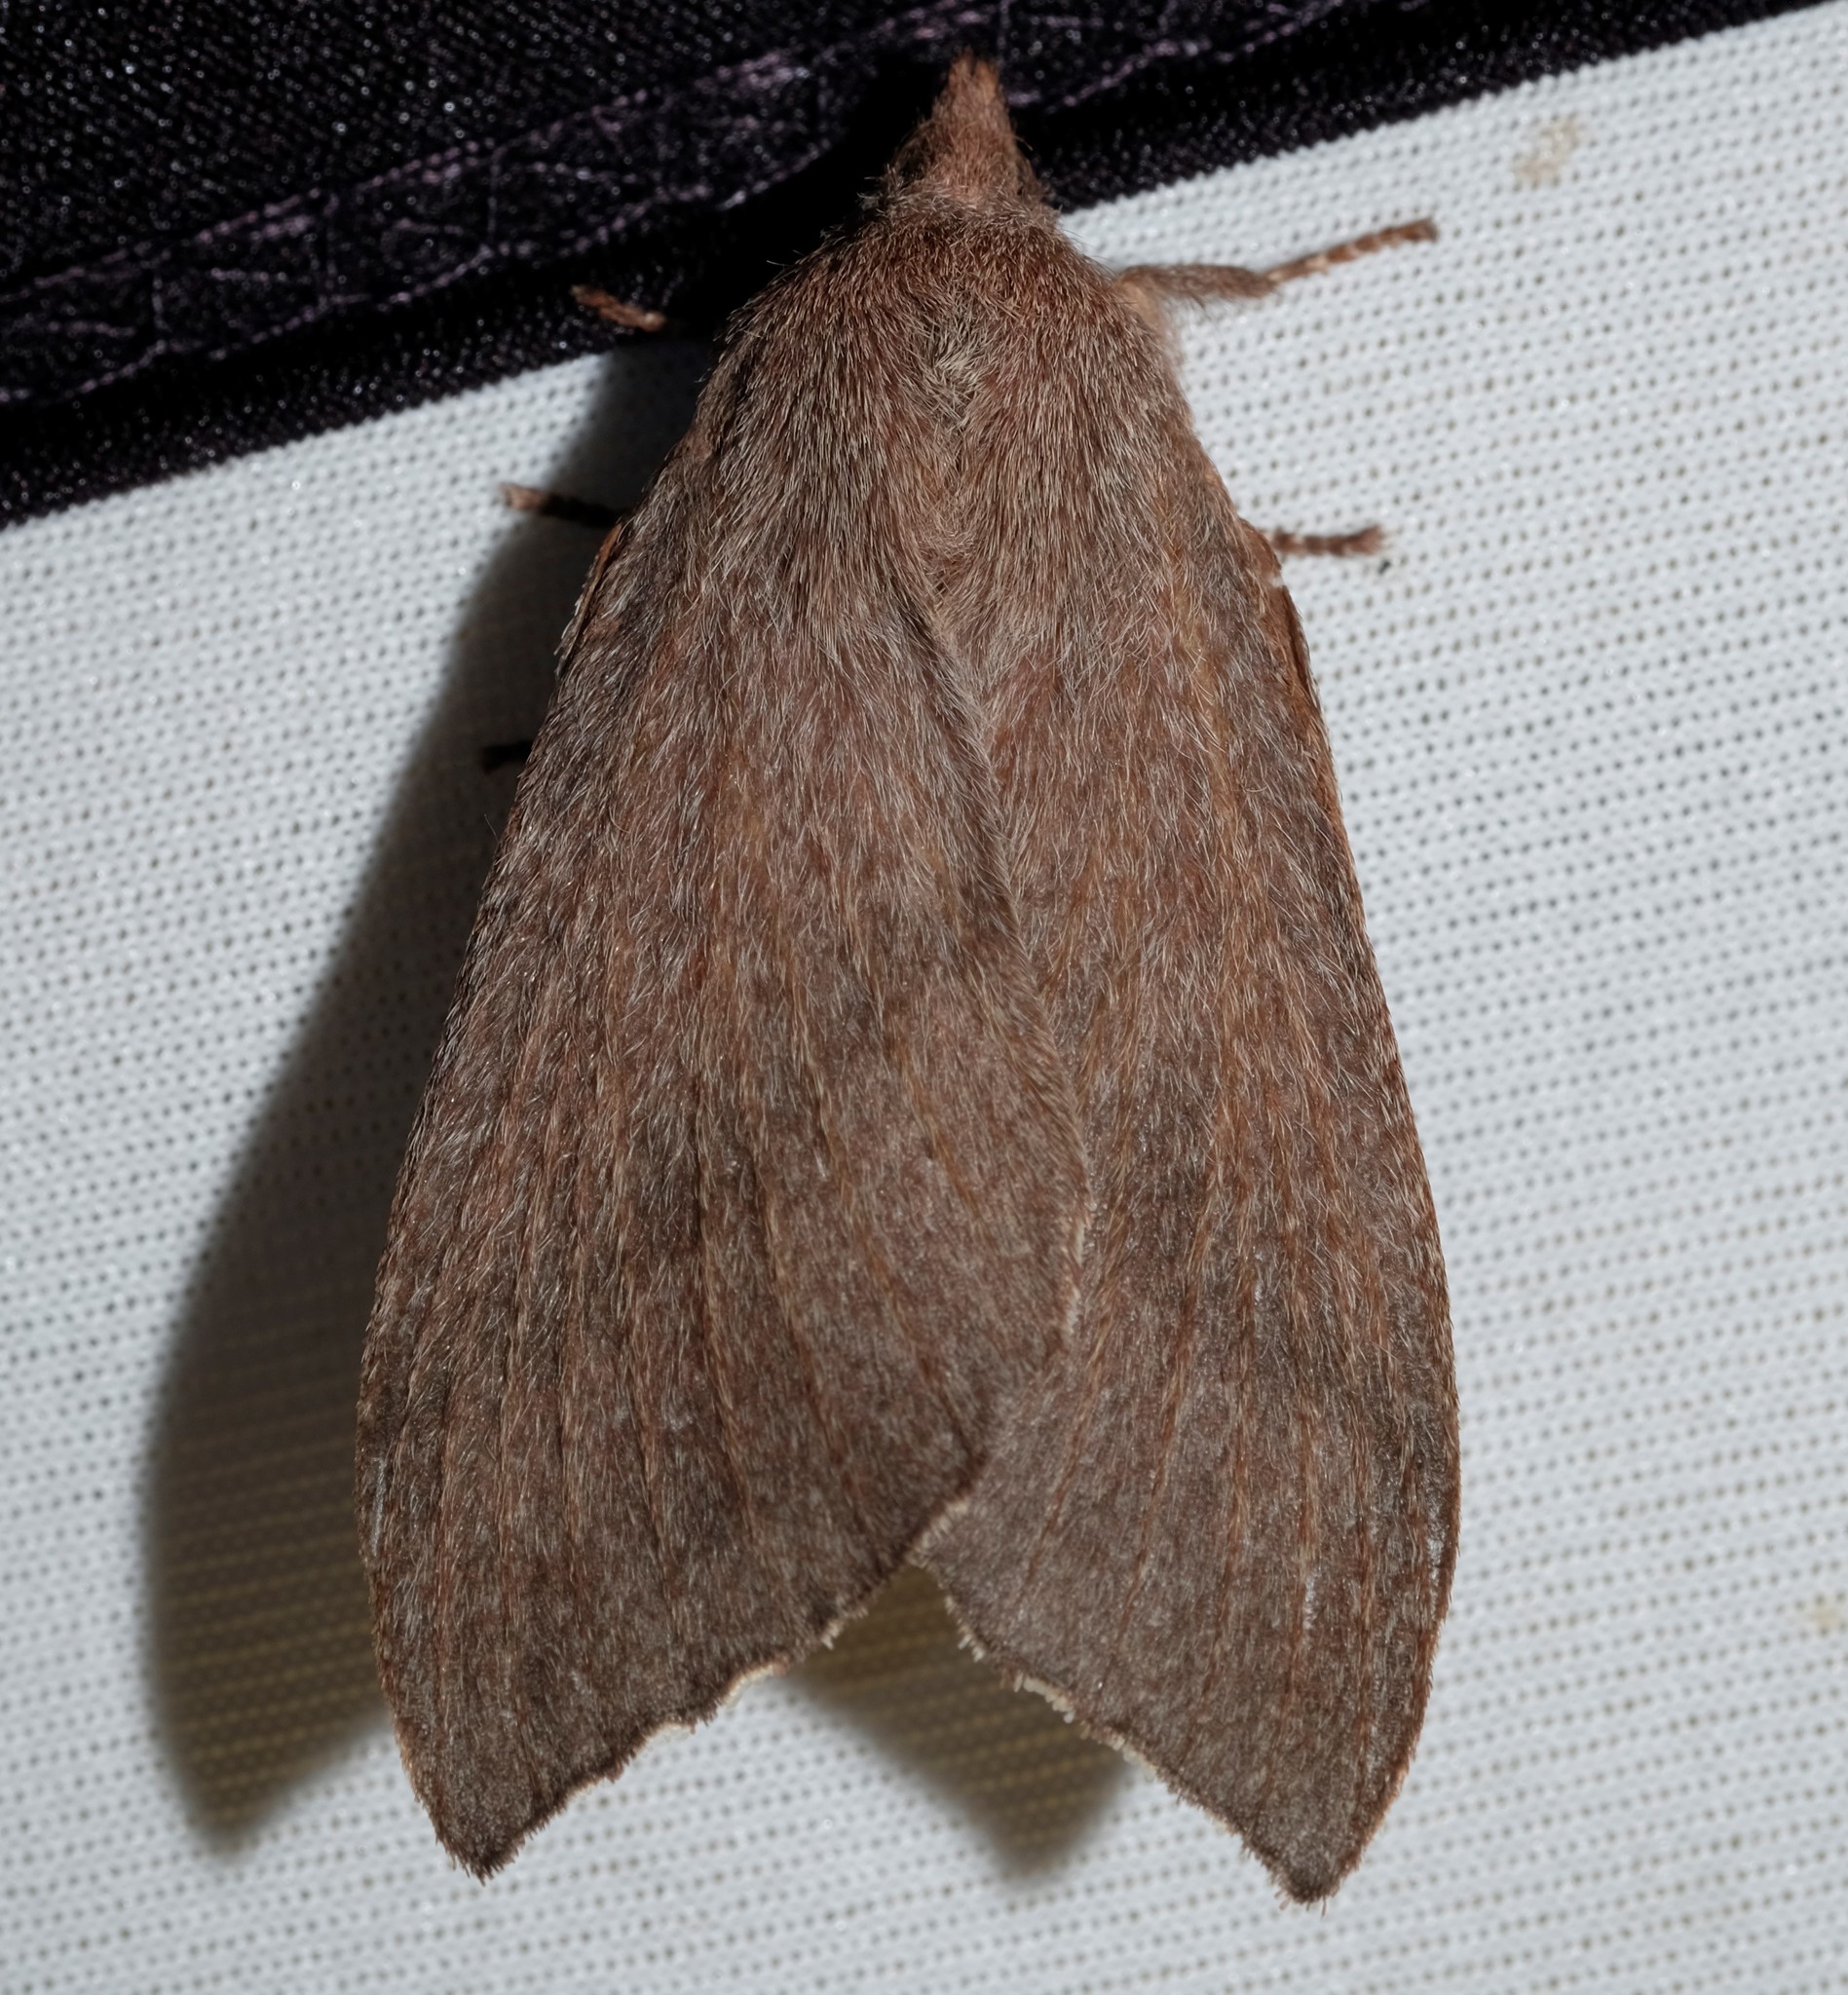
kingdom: Animalia
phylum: Arthropoda
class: Insecta
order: Lepidoptera
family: Lasiocampidae
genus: Pararguda
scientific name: Pararguda rufescens
